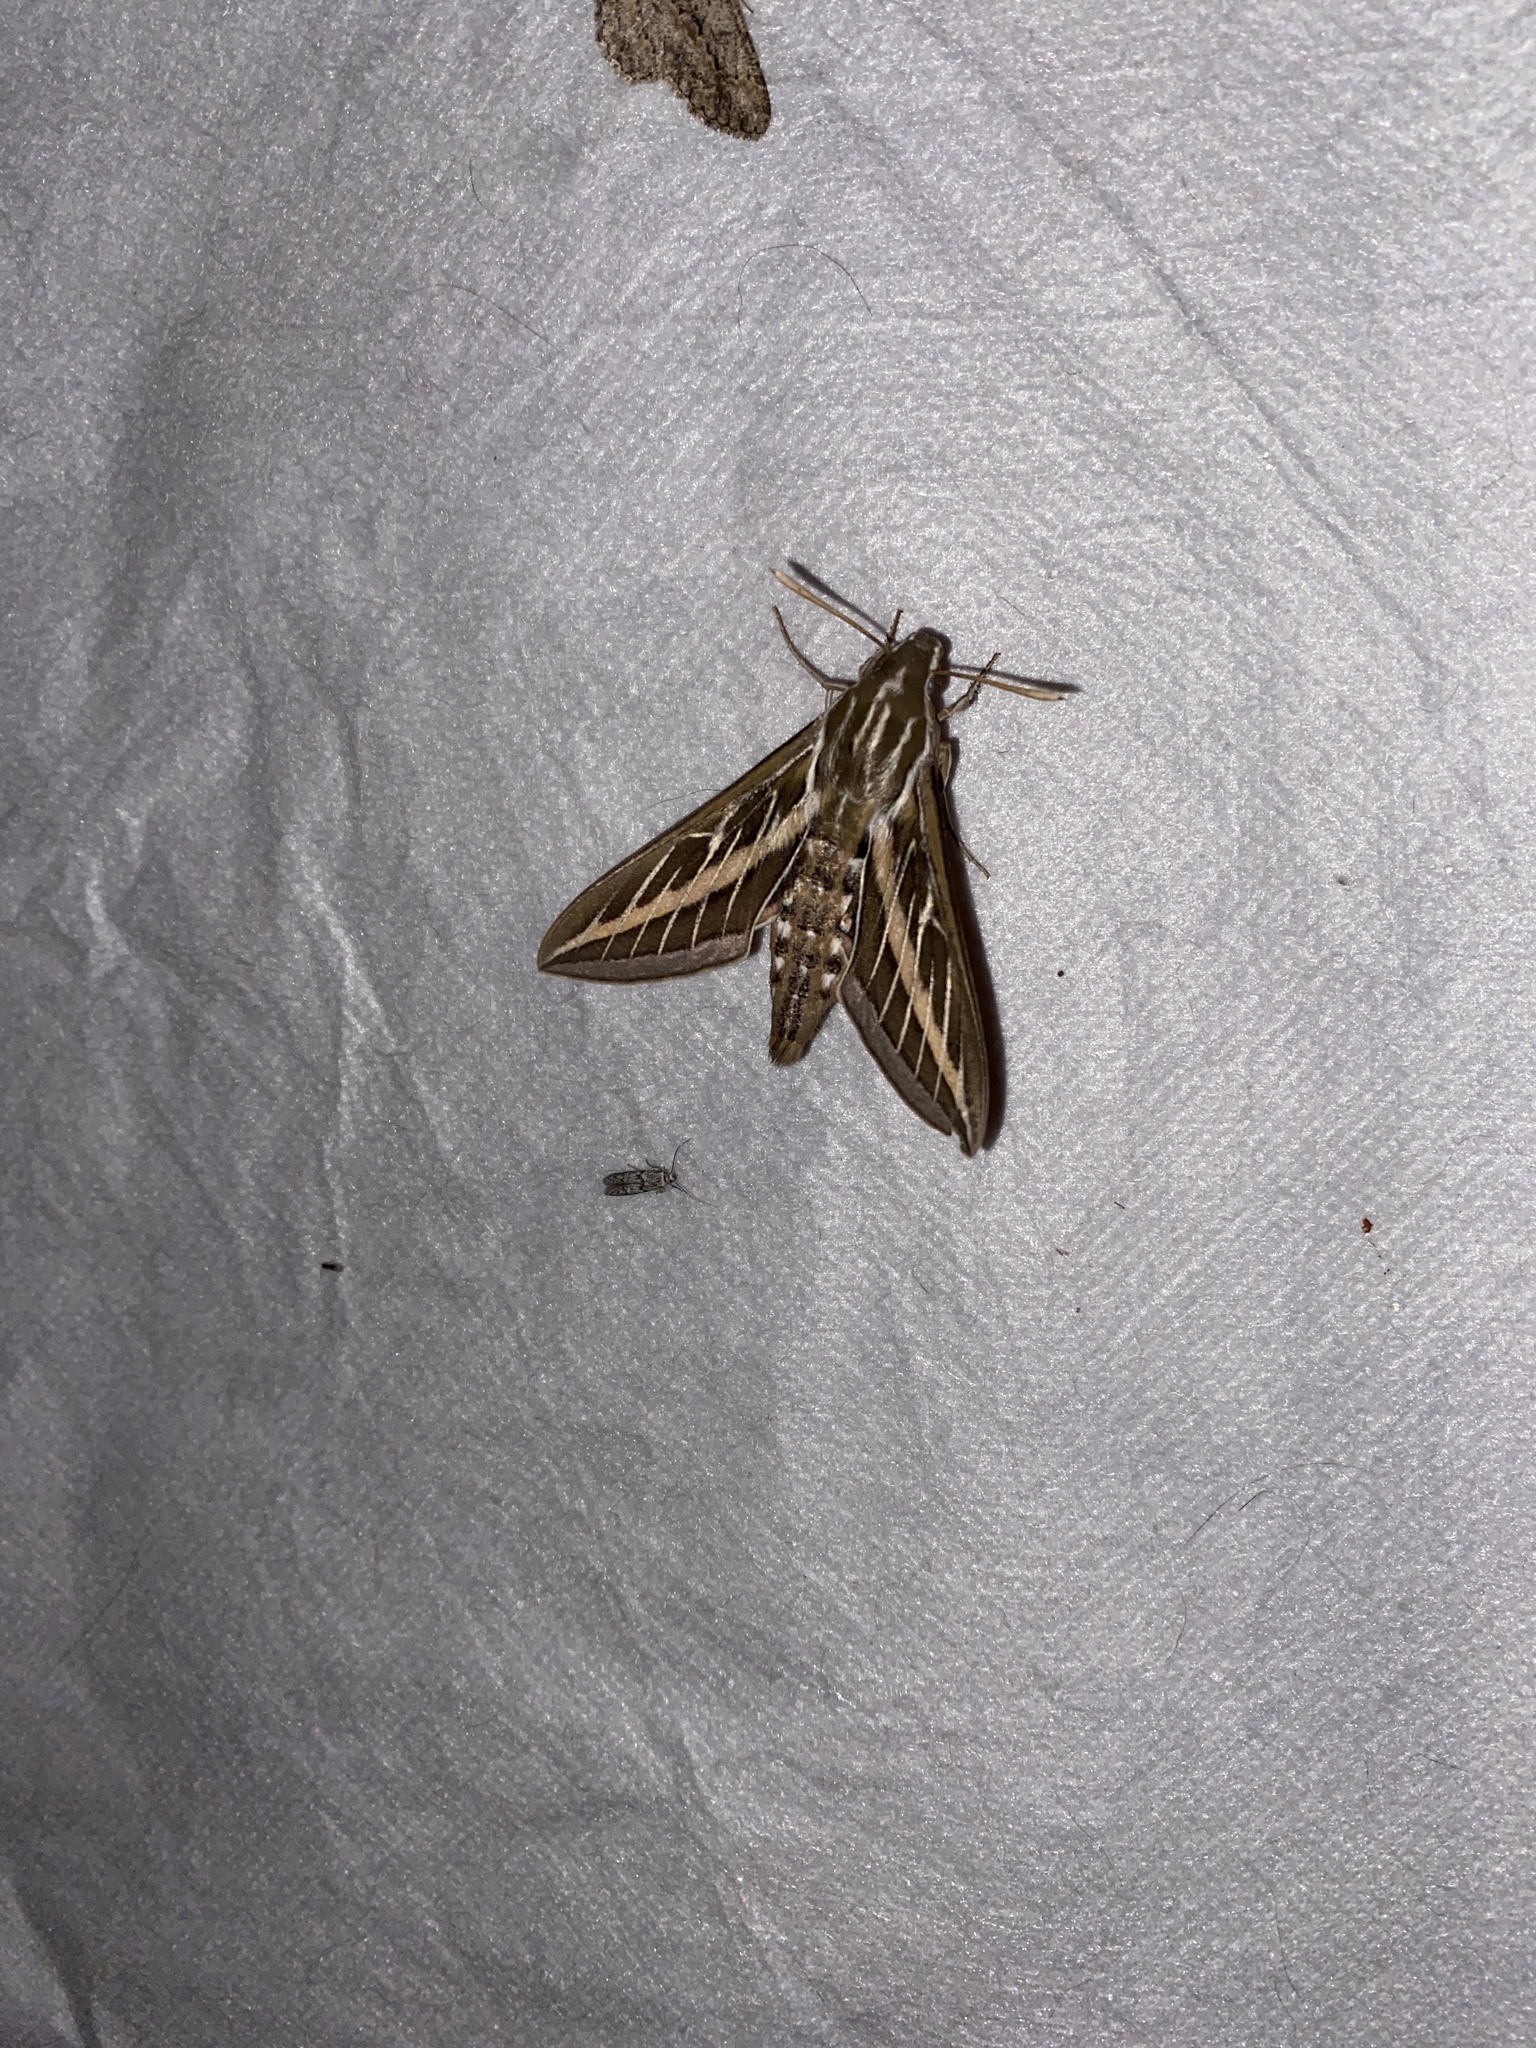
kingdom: Animalia
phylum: Arthropoda
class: Insecta
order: Lepidoptera
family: Sphingidae
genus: Hyles
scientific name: Hyles lineata
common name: White-lined sphinx
